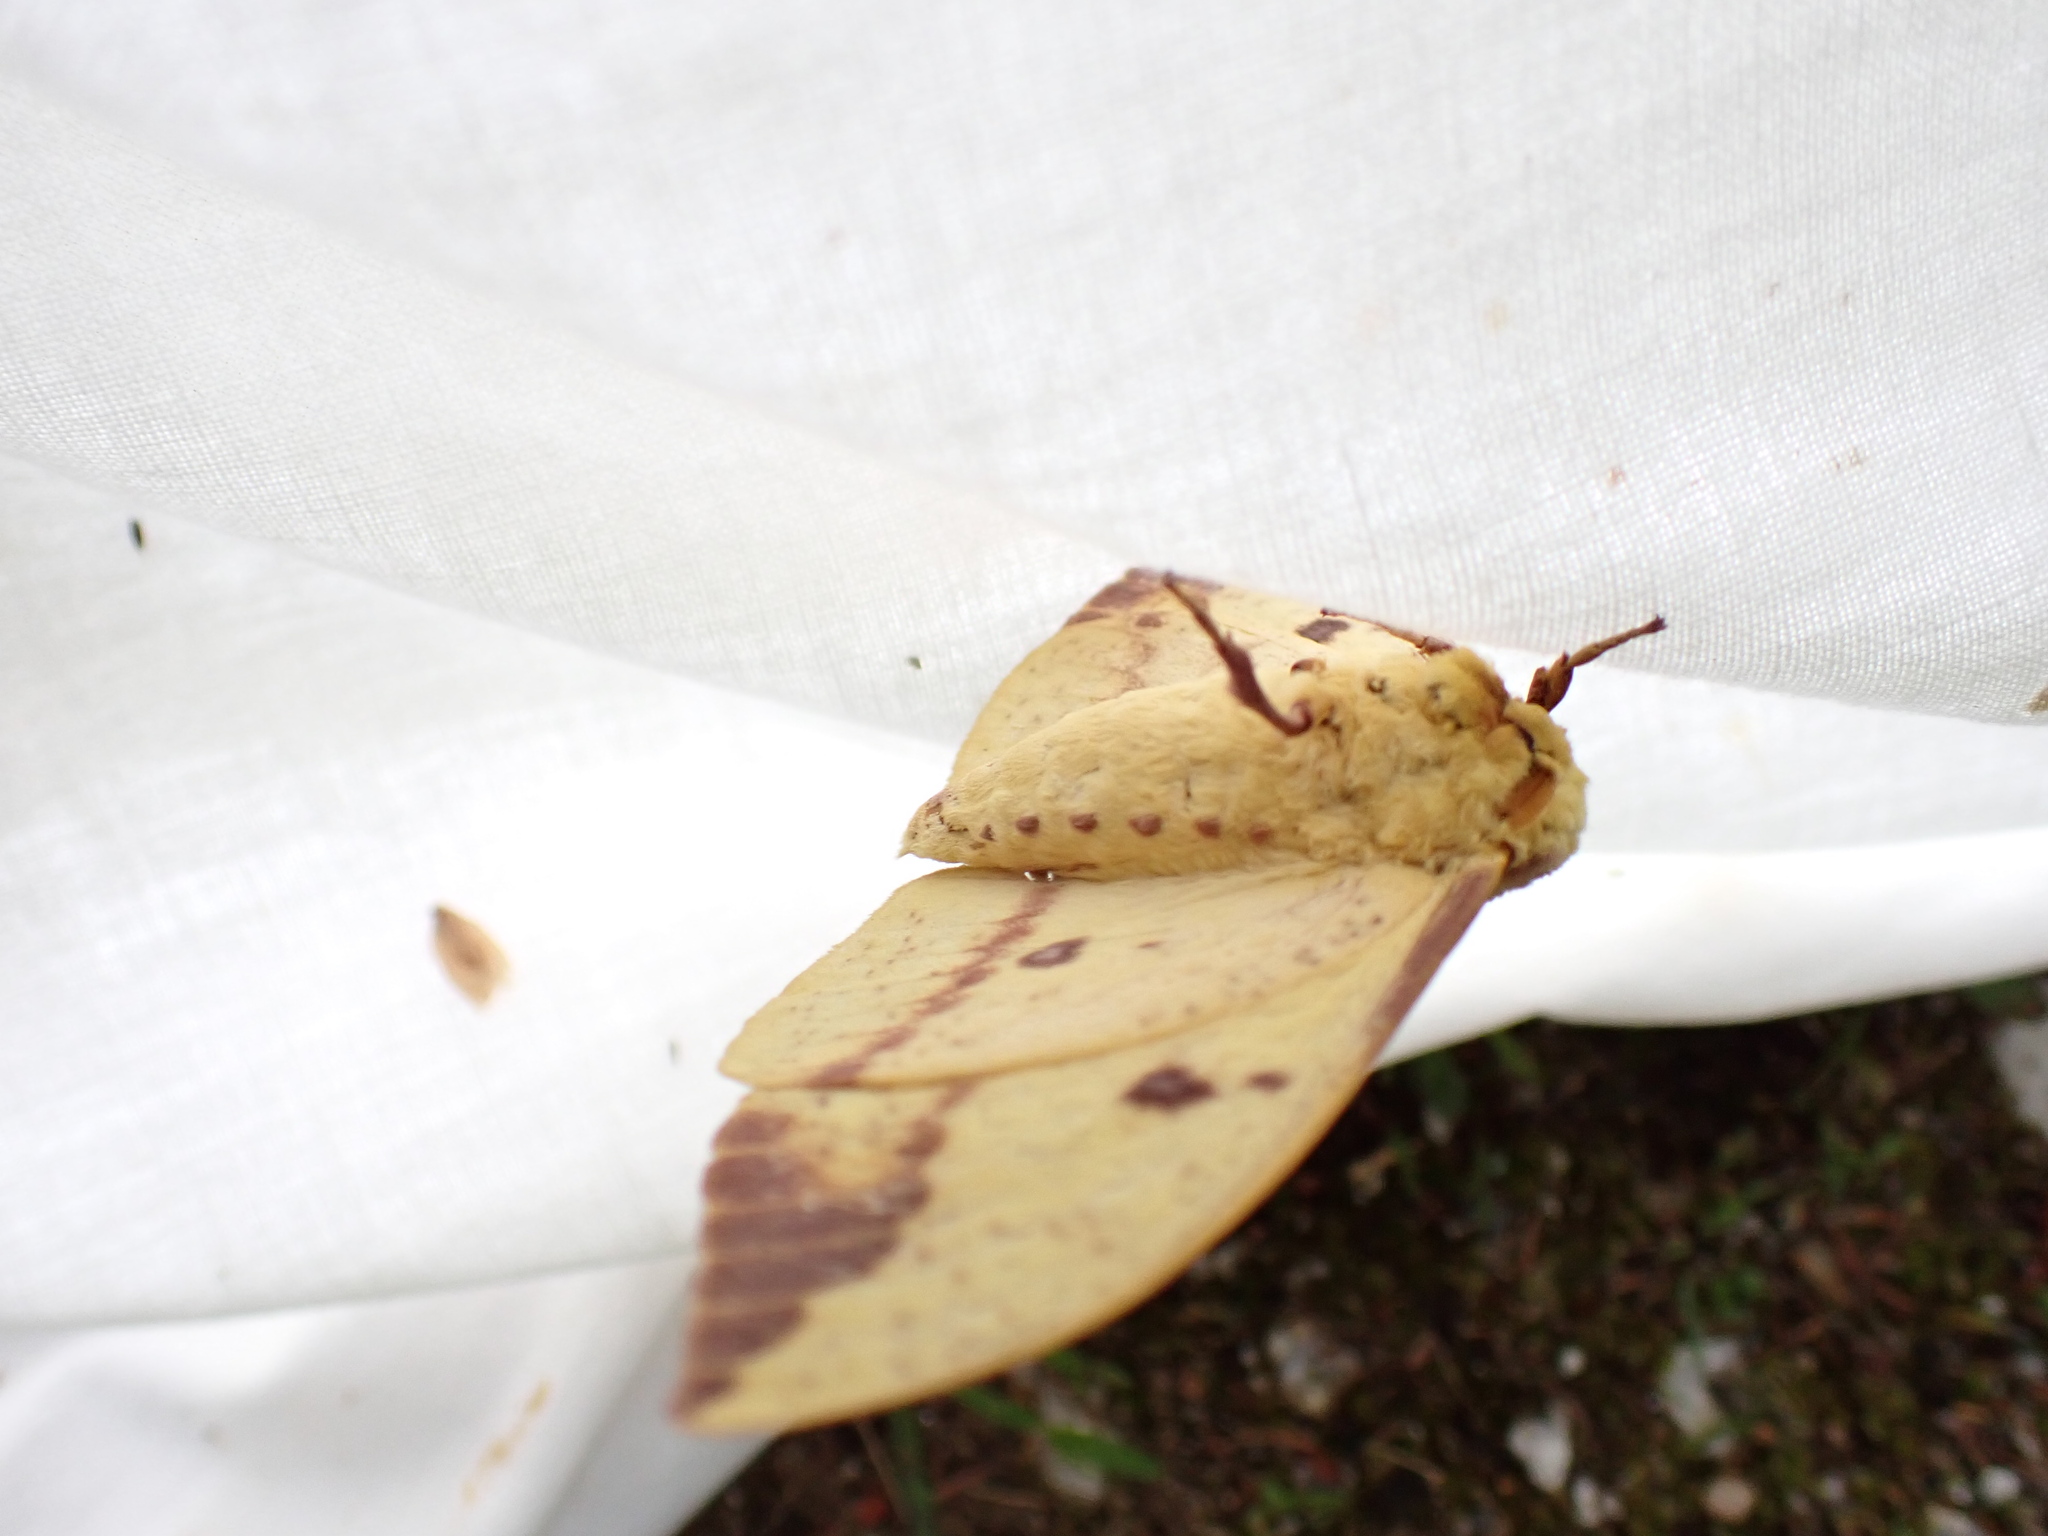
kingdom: Animalia
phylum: Arthropoda
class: Insecta
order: Lepidoptera
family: Saturniidae
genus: Eacles
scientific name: Eacles
